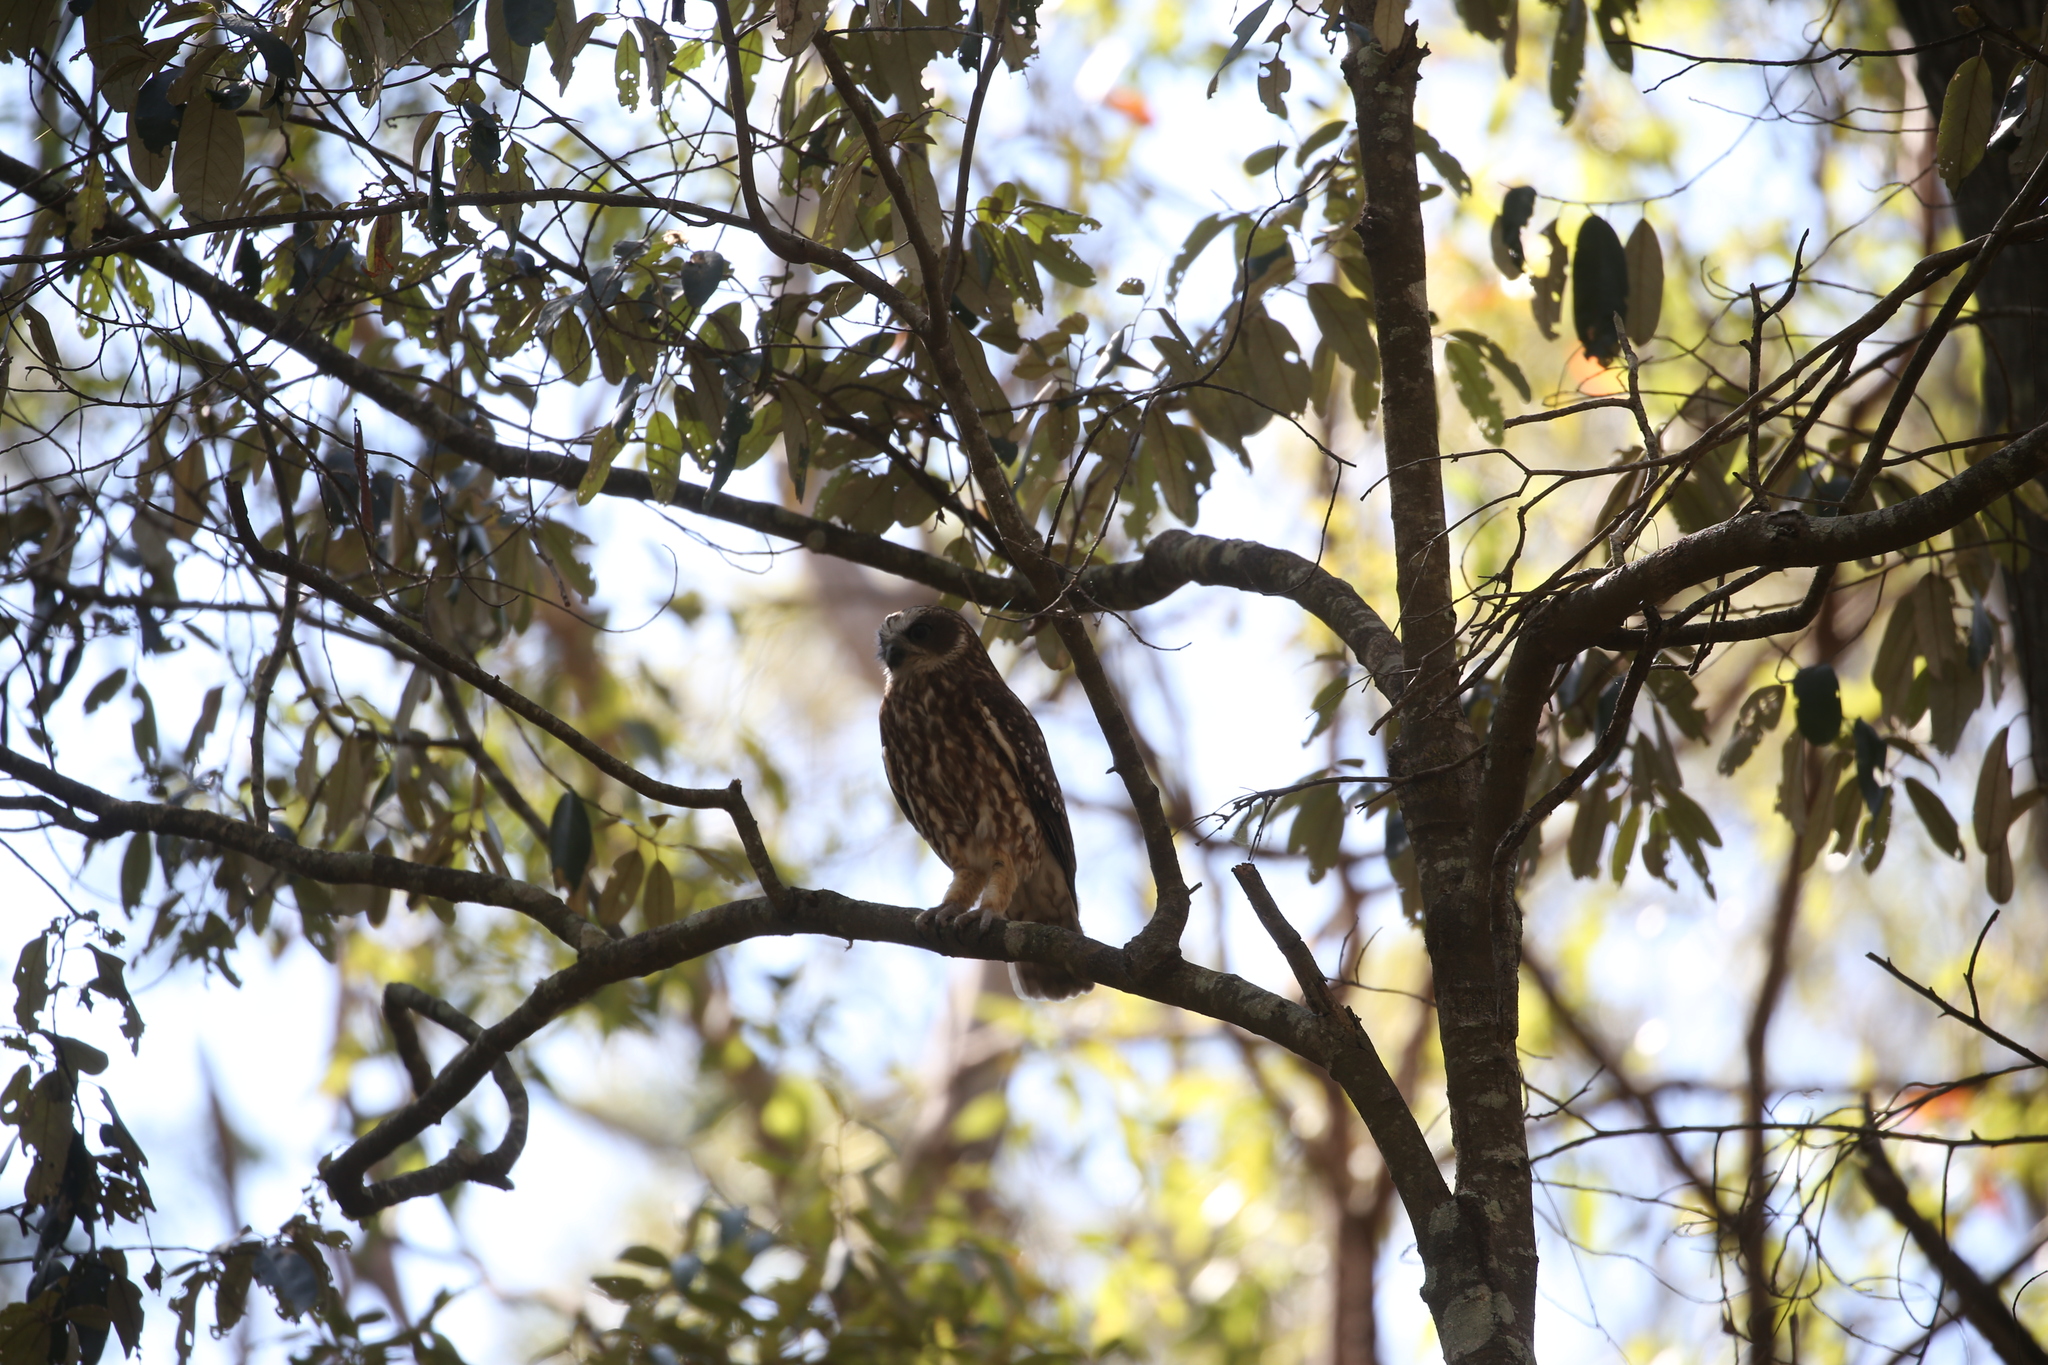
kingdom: Animalia
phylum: Chordata
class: Aves
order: Strigiformes
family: Strigidae
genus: Ninox
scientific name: Ninox boobook
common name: Southern boobook
